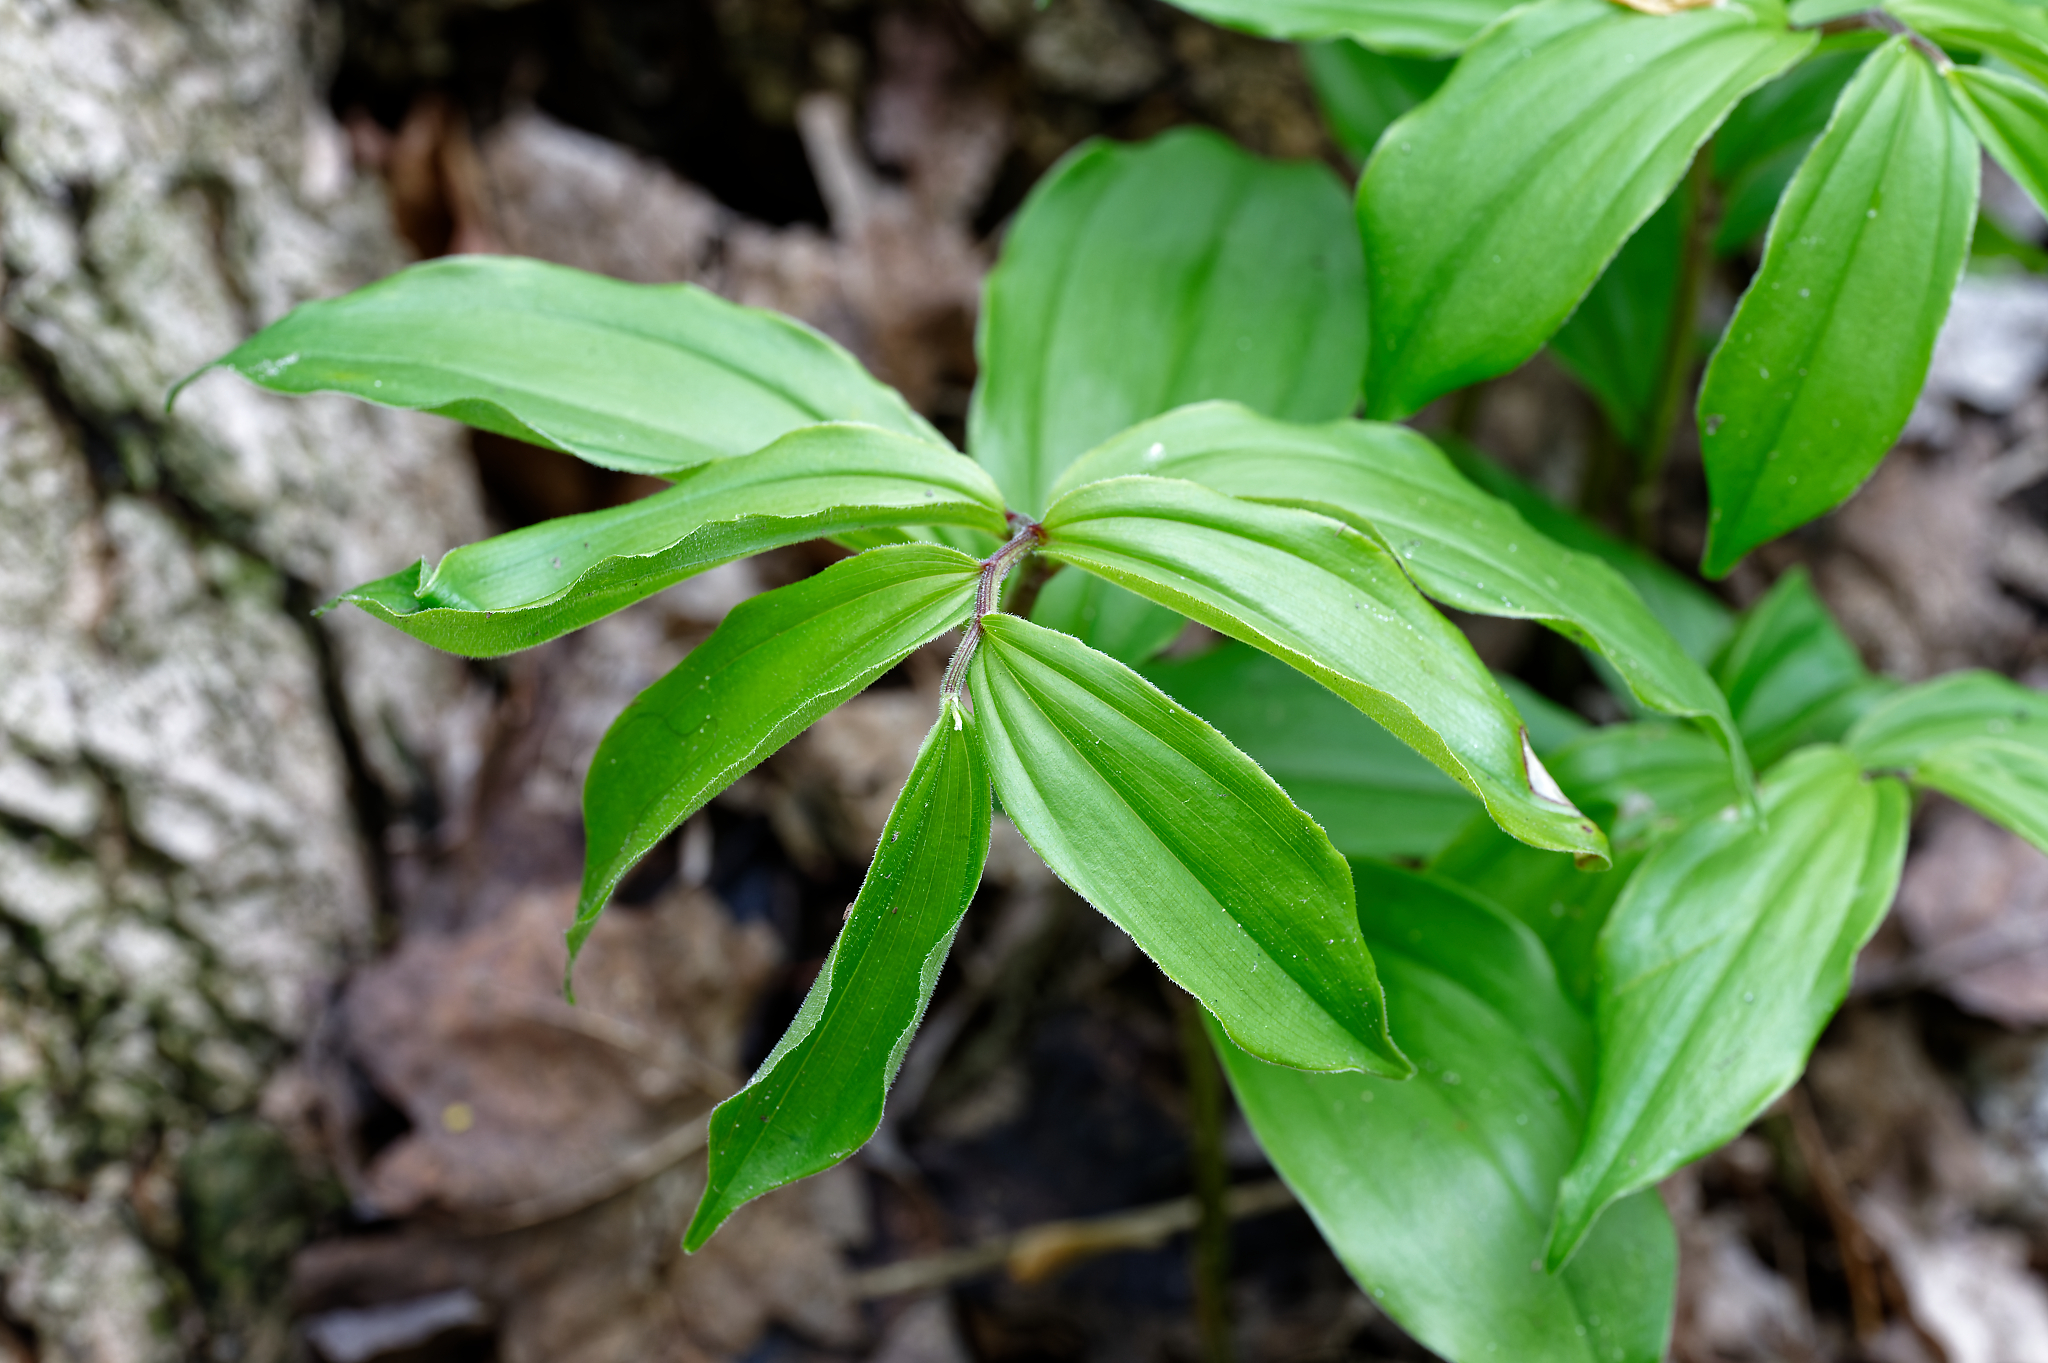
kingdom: Plantae
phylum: Tracheophyta
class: Liliopsida
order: Asparagales
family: Asparagaceae
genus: Maianthemum
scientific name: Maianthemum racemosum
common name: False spikenard
